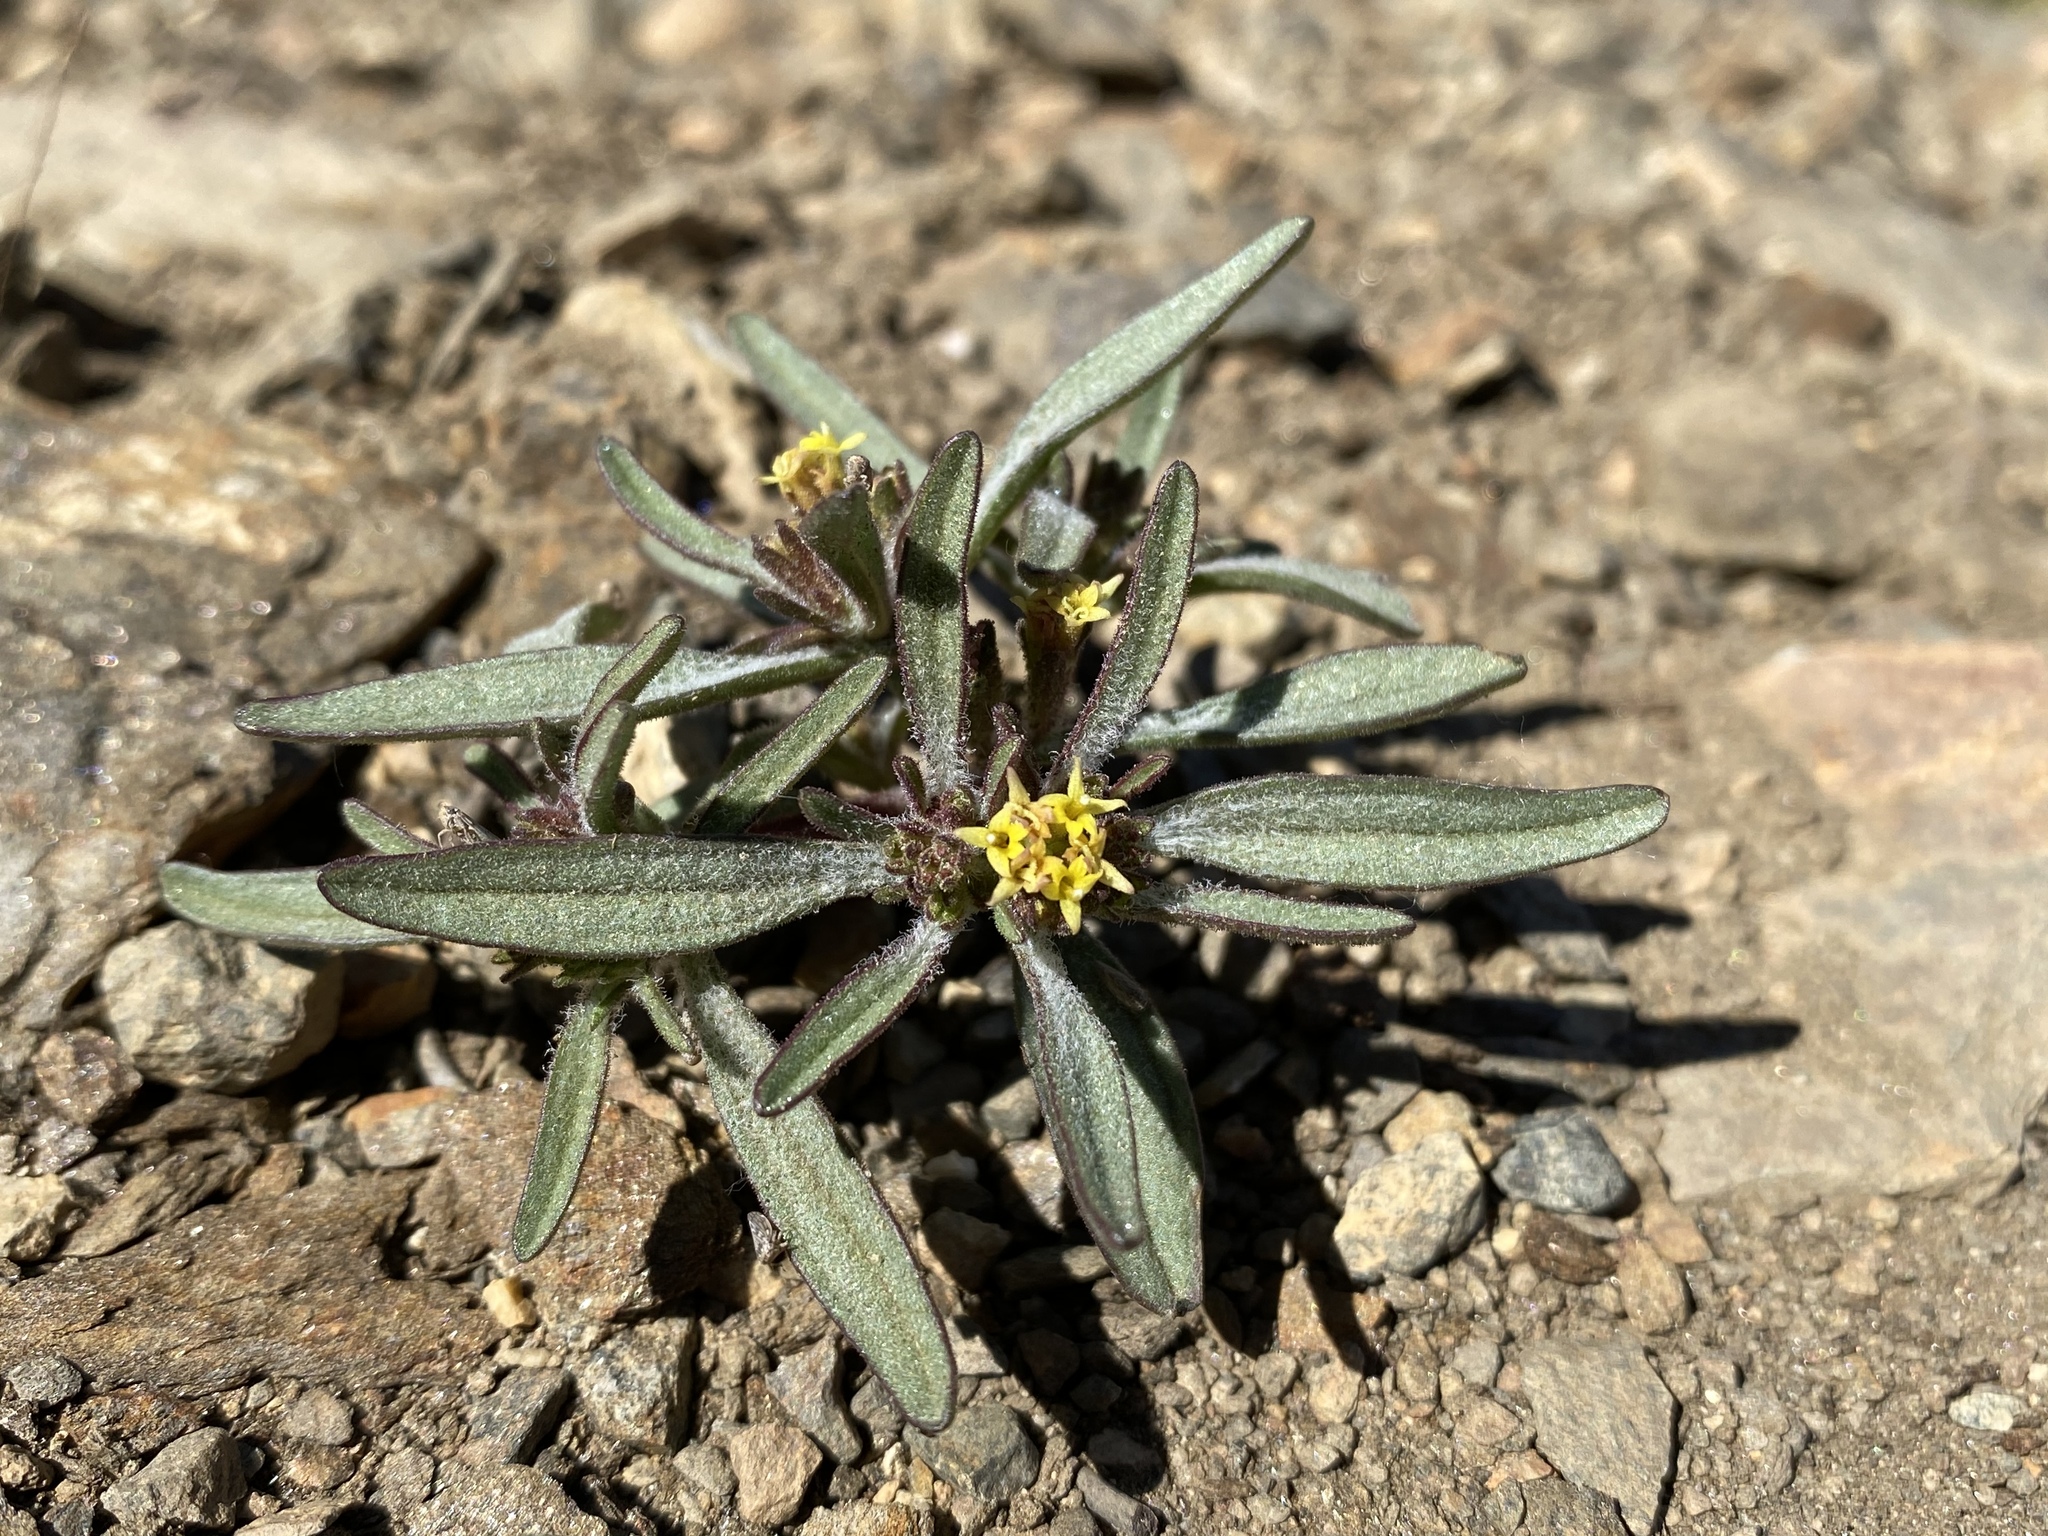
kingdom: Plantae
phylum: Tracheophyta
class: Magnoliopsida
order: Asterales
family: Asteraceae
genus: Orochaenactis
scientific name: Orochaenactis thysanocarpha
